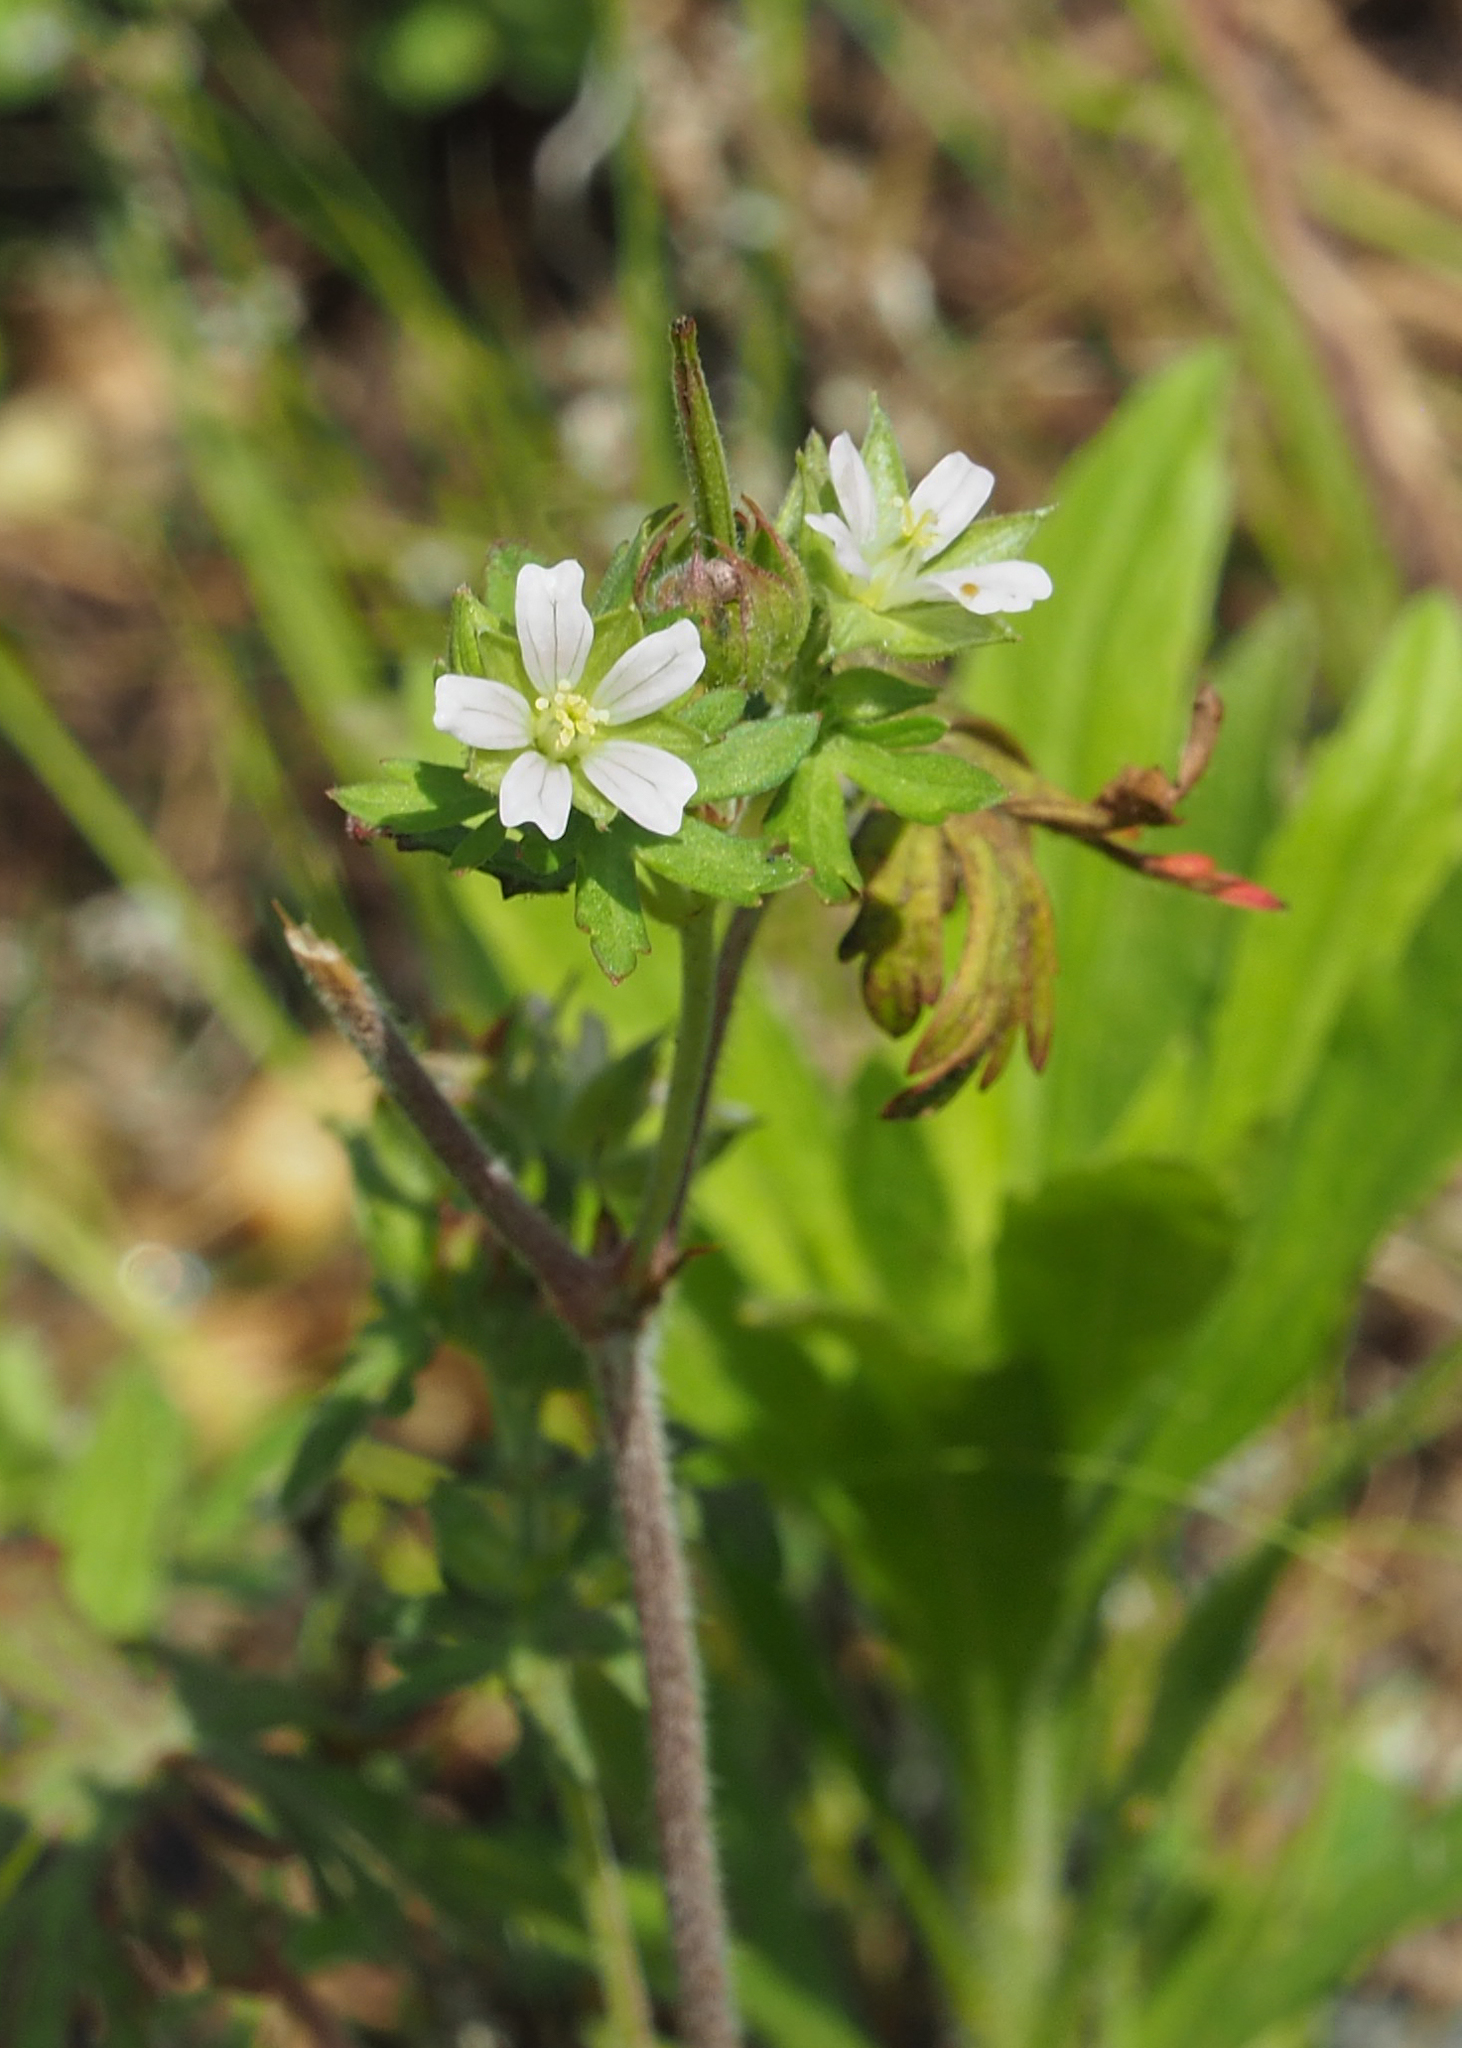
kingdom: Plantae
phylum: Tracheophyta
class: Magnoliopsida
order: Geraniales
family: Geraniaceae
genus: Geranium
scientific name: Geranium carolinianum
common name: Carolina crane's-bill
